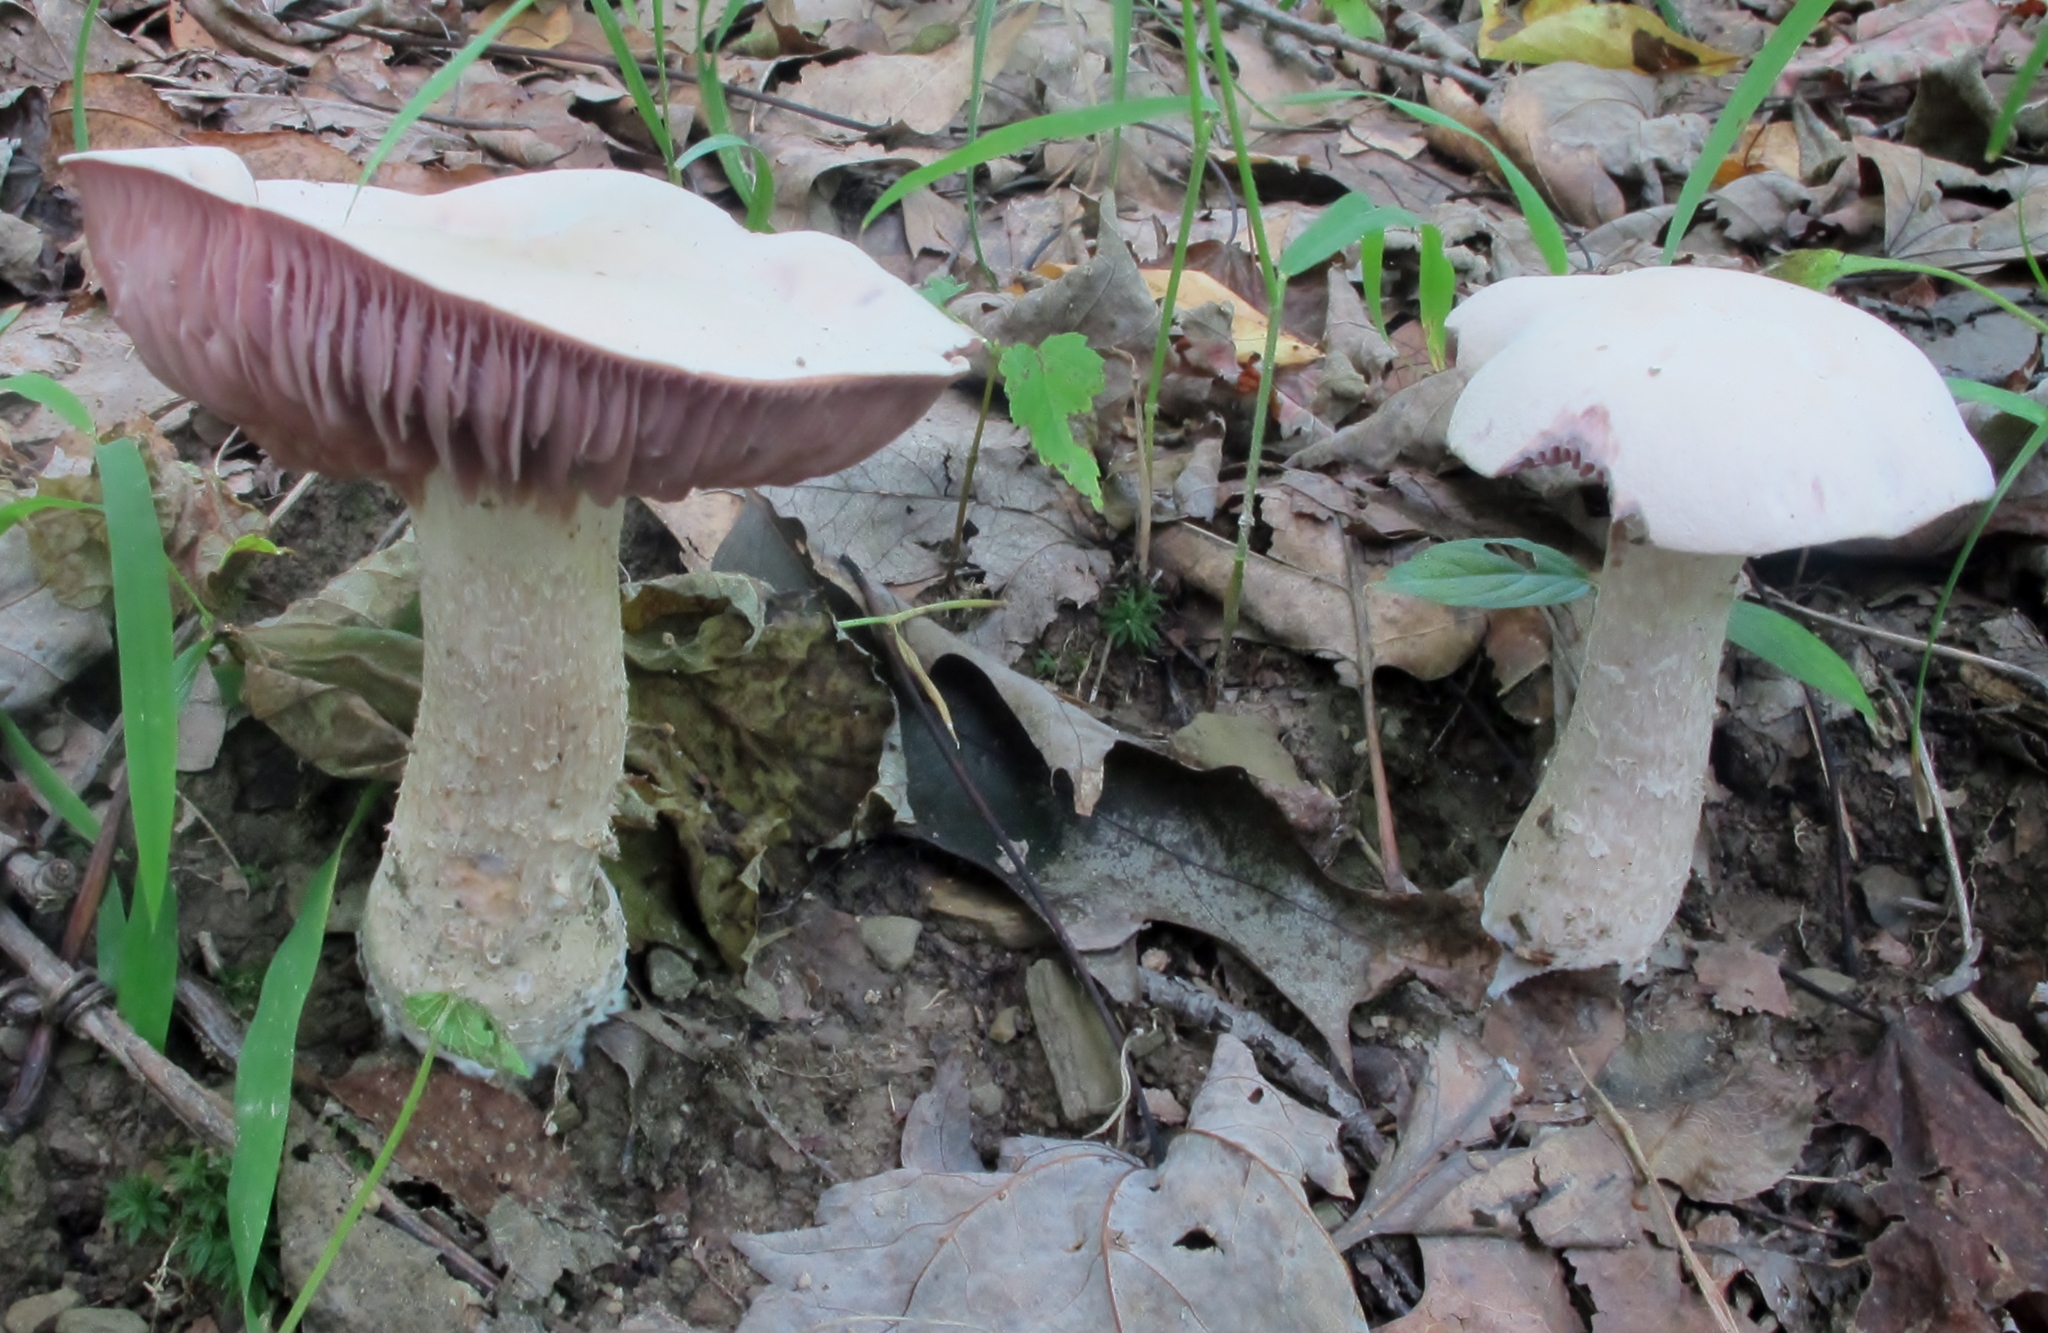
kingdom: Fungi
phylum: Basidiomycota
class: Agaricomycetes
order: Agaricales
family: Hydnangiaceae
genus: Laccaria
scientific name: Laccaria ochropurpurea
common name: Purple laccaria
